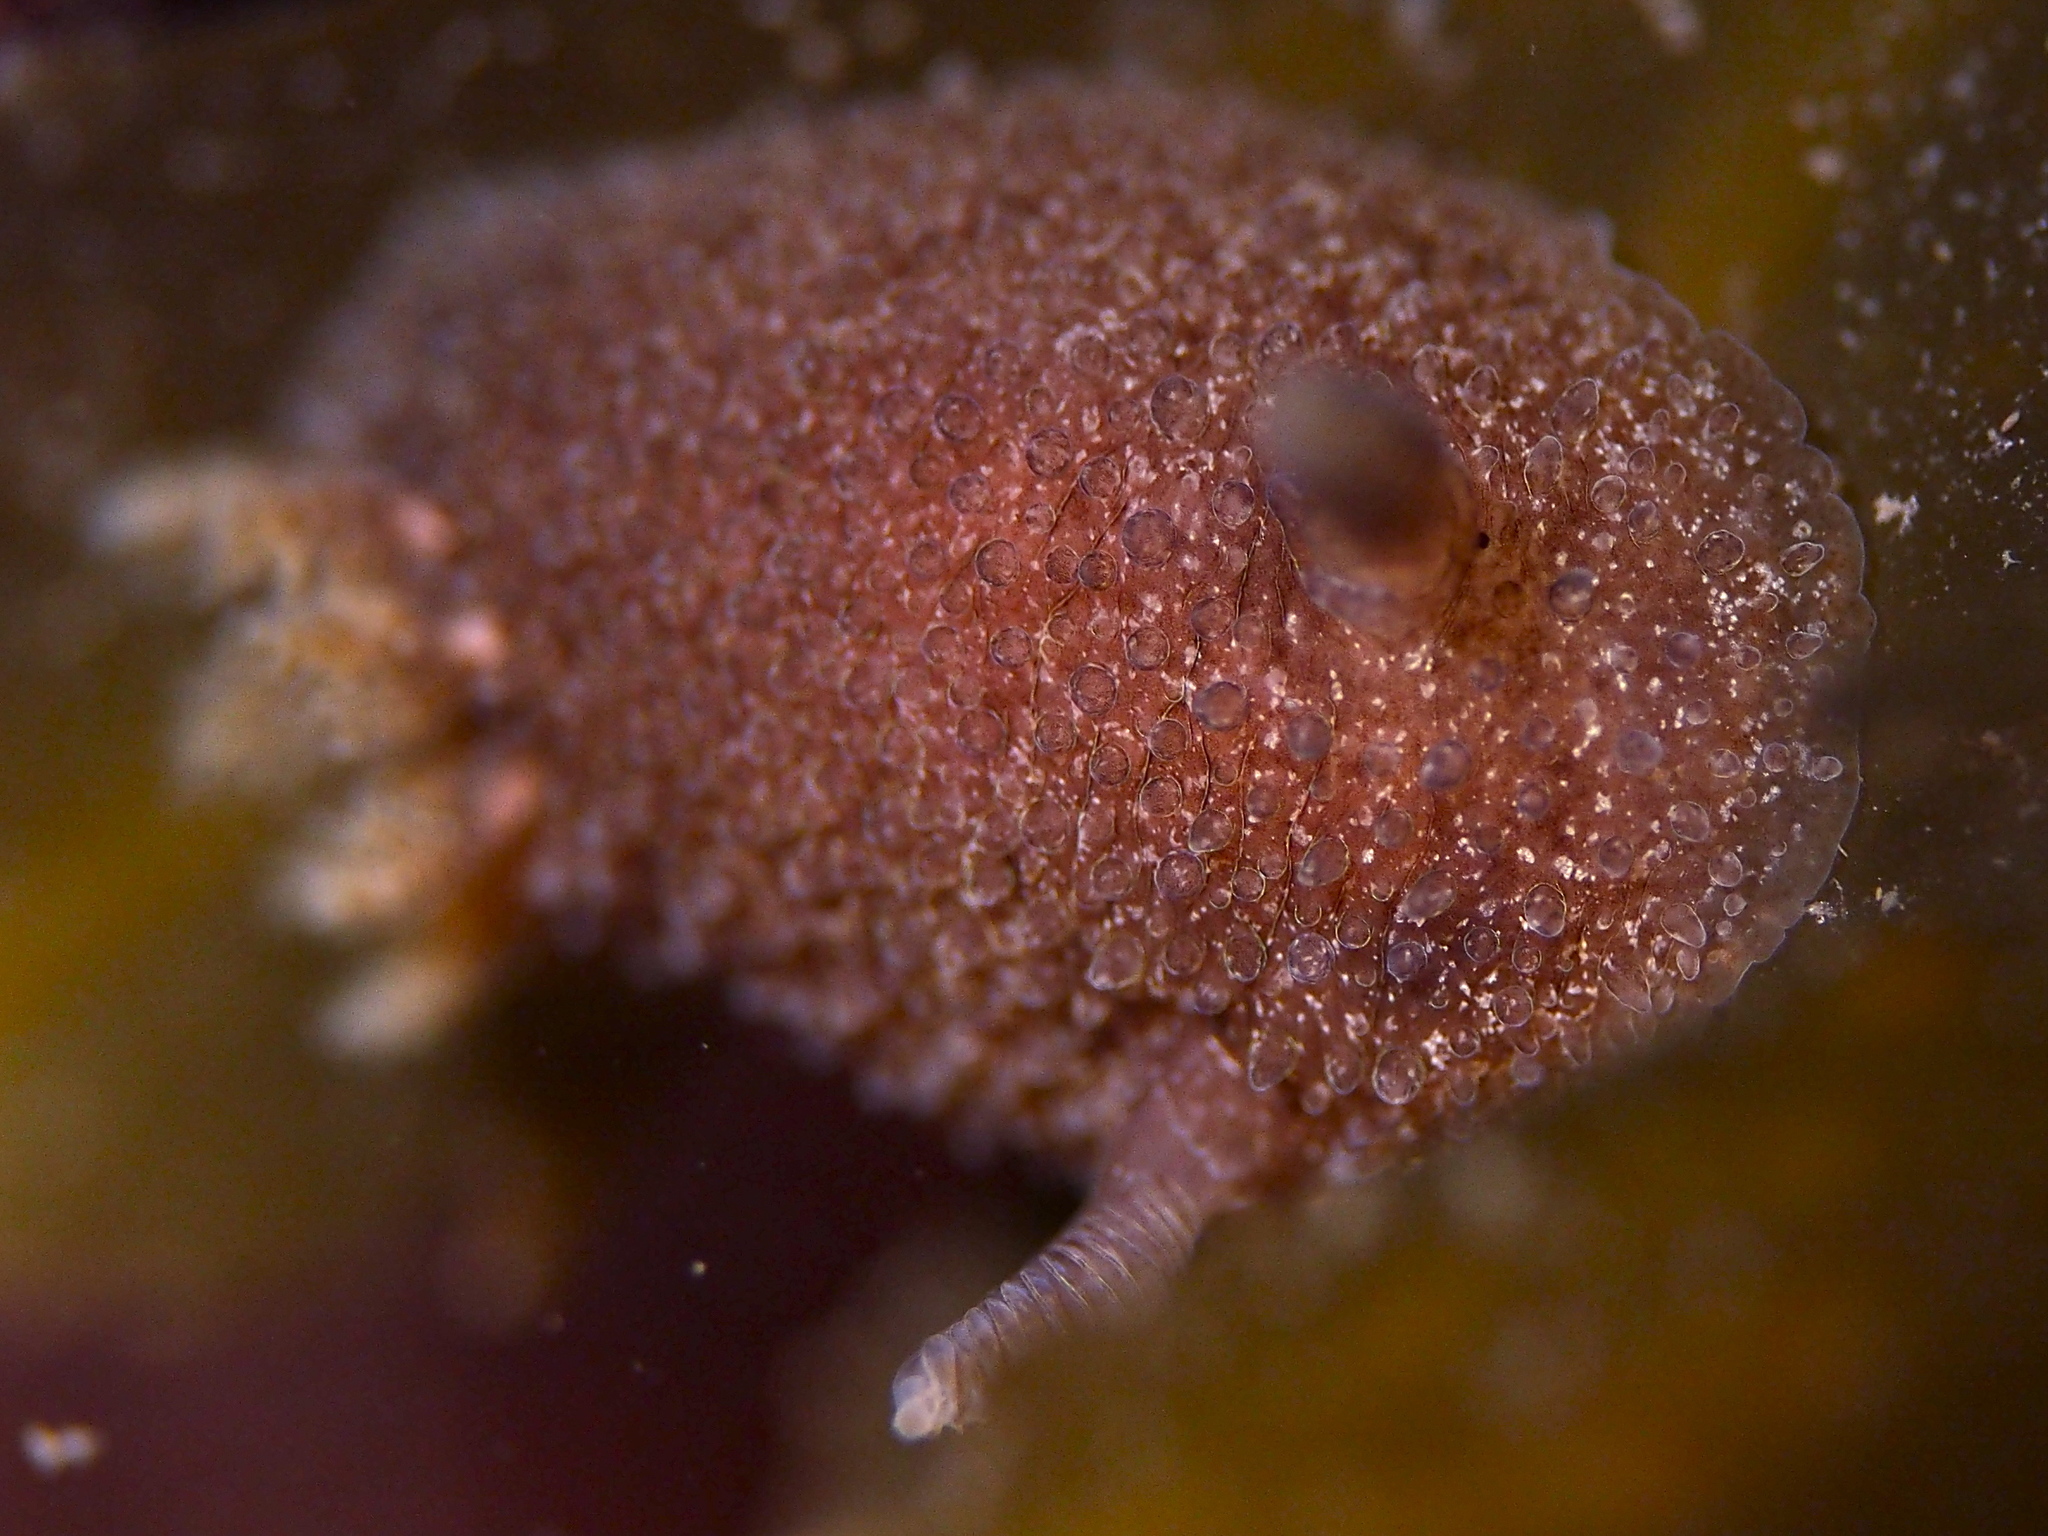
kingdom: Animalia
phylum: Mollusca
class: Gastropoda
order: Nudibranchia
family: Onchidorididae
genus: Acanthodoris
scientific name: Acanthodoris pilosa
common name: Hairy spiny doris
